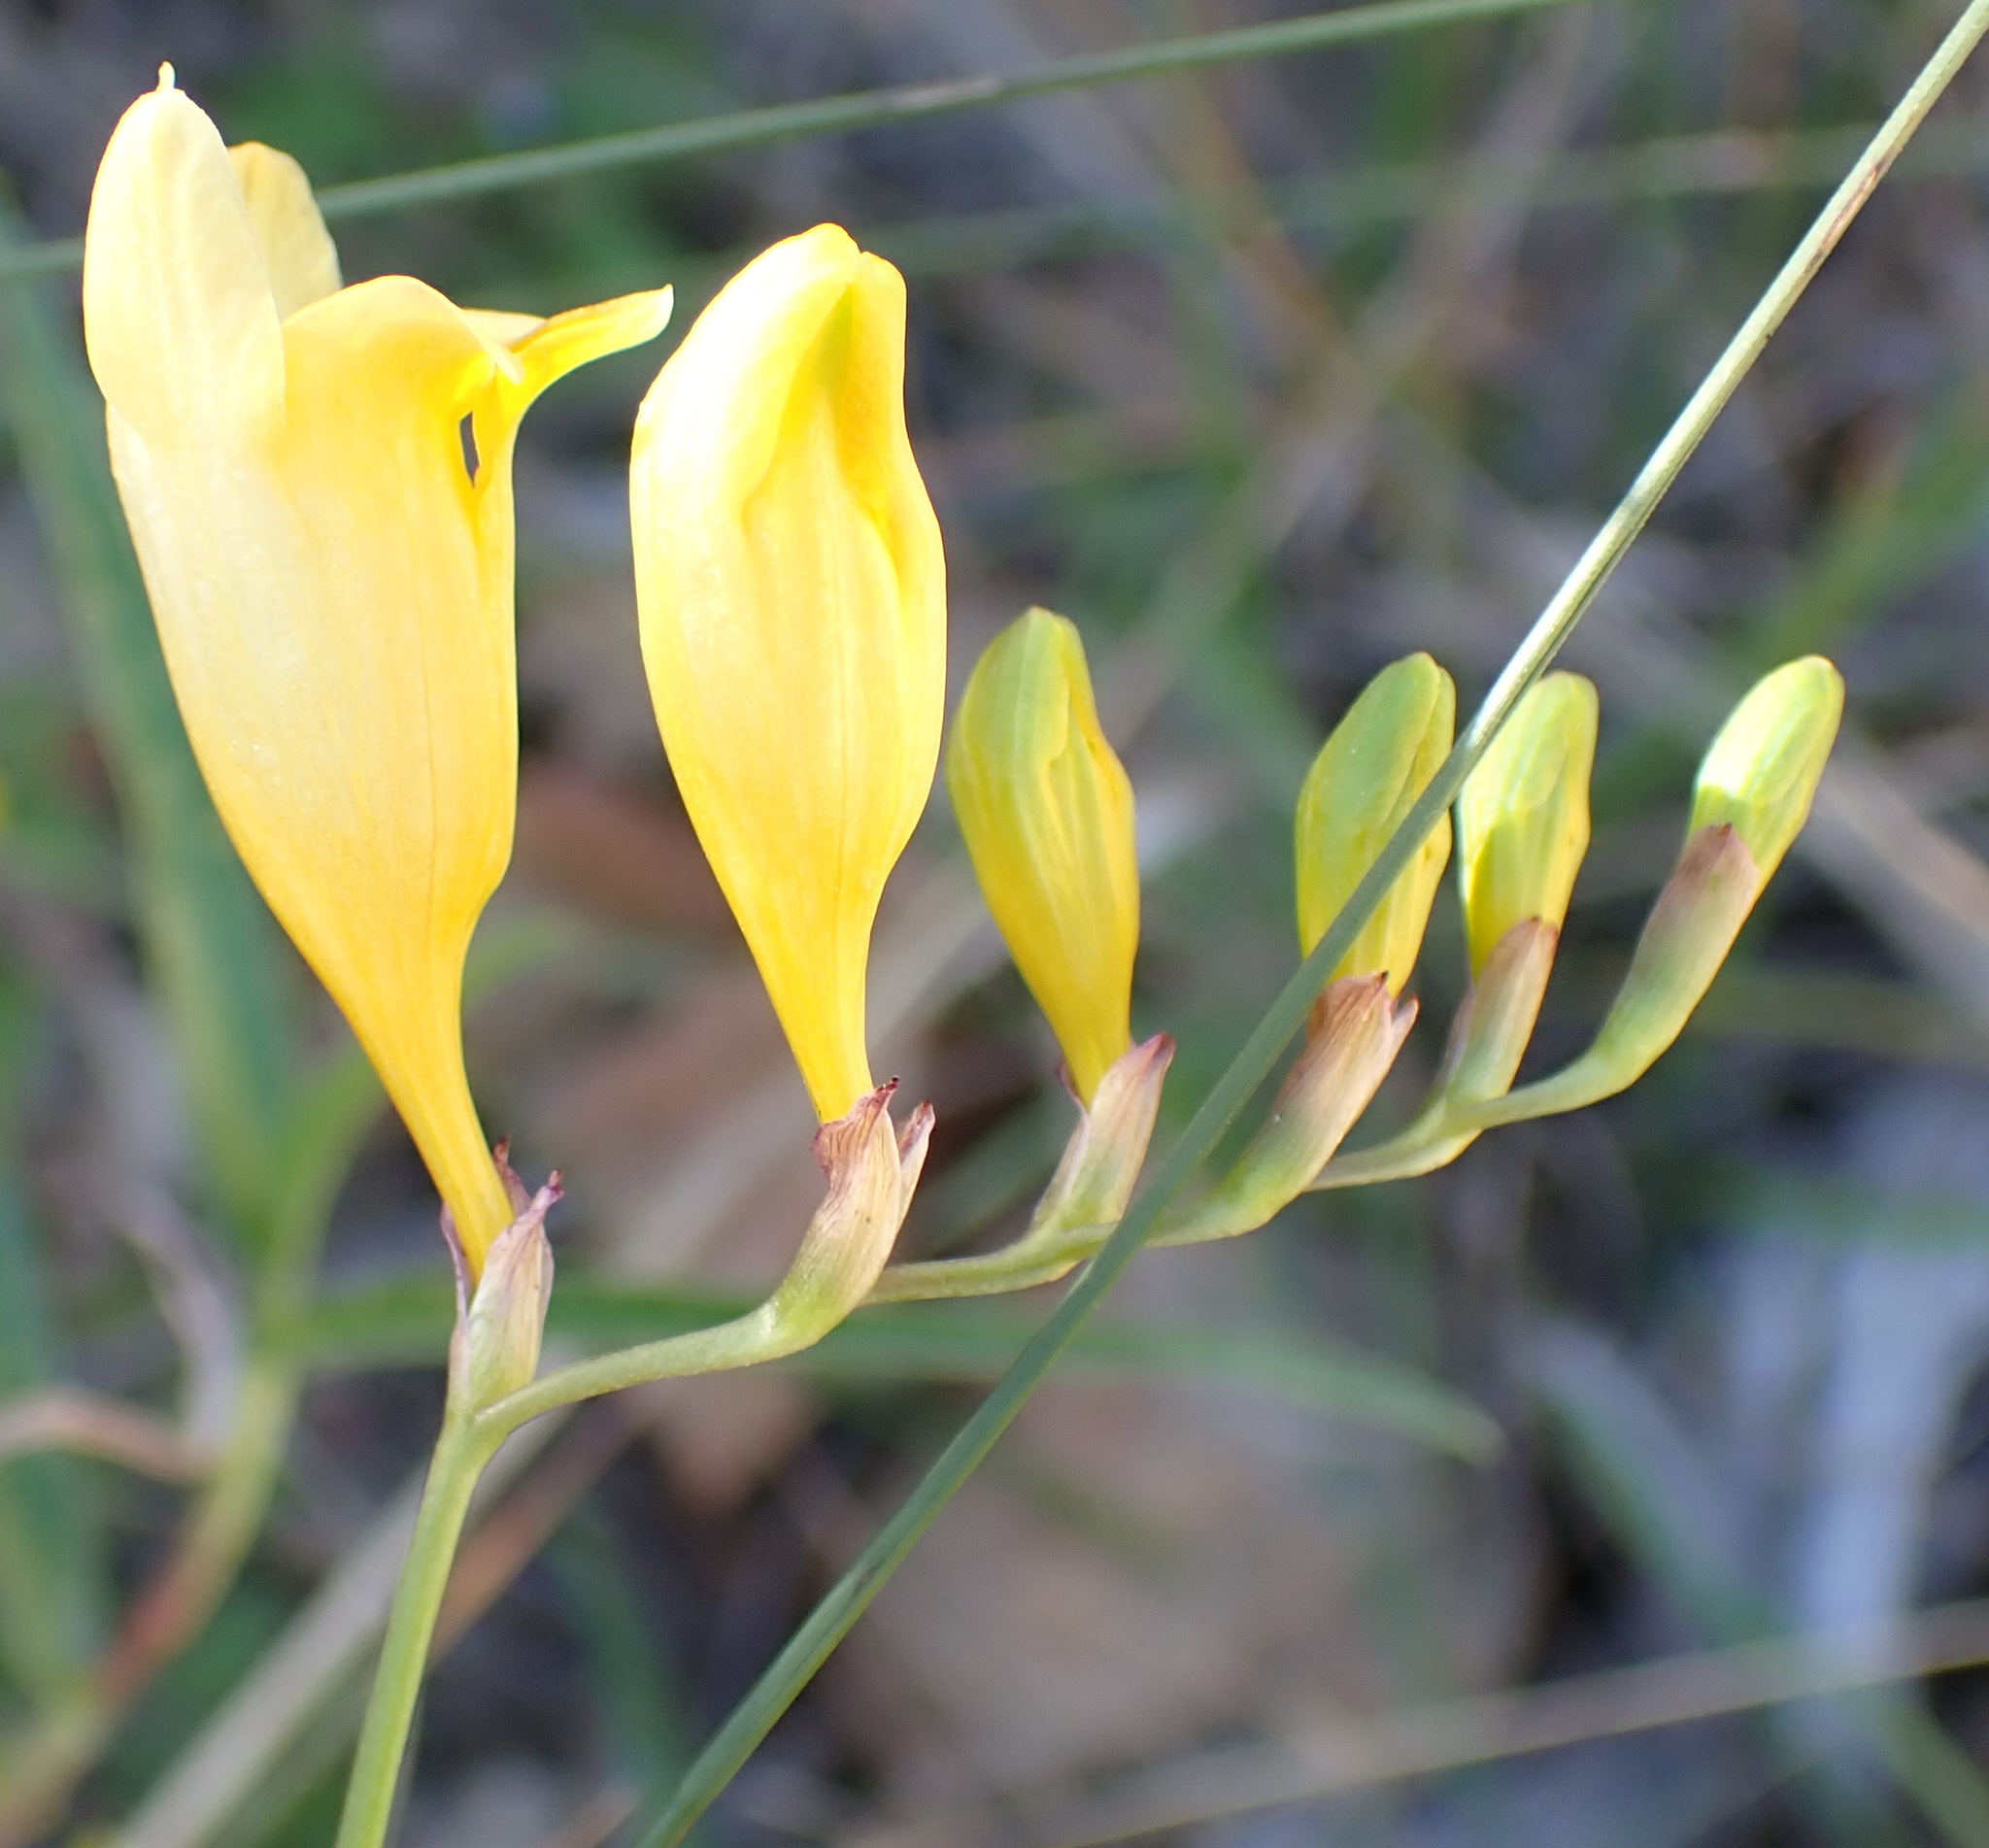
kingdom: Plantae
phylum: Tracheophyta
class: Liliopsida
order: Asparagales
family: Iridaceae
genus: Freesia
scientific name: Freesia corymbosa
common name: Common freesia
